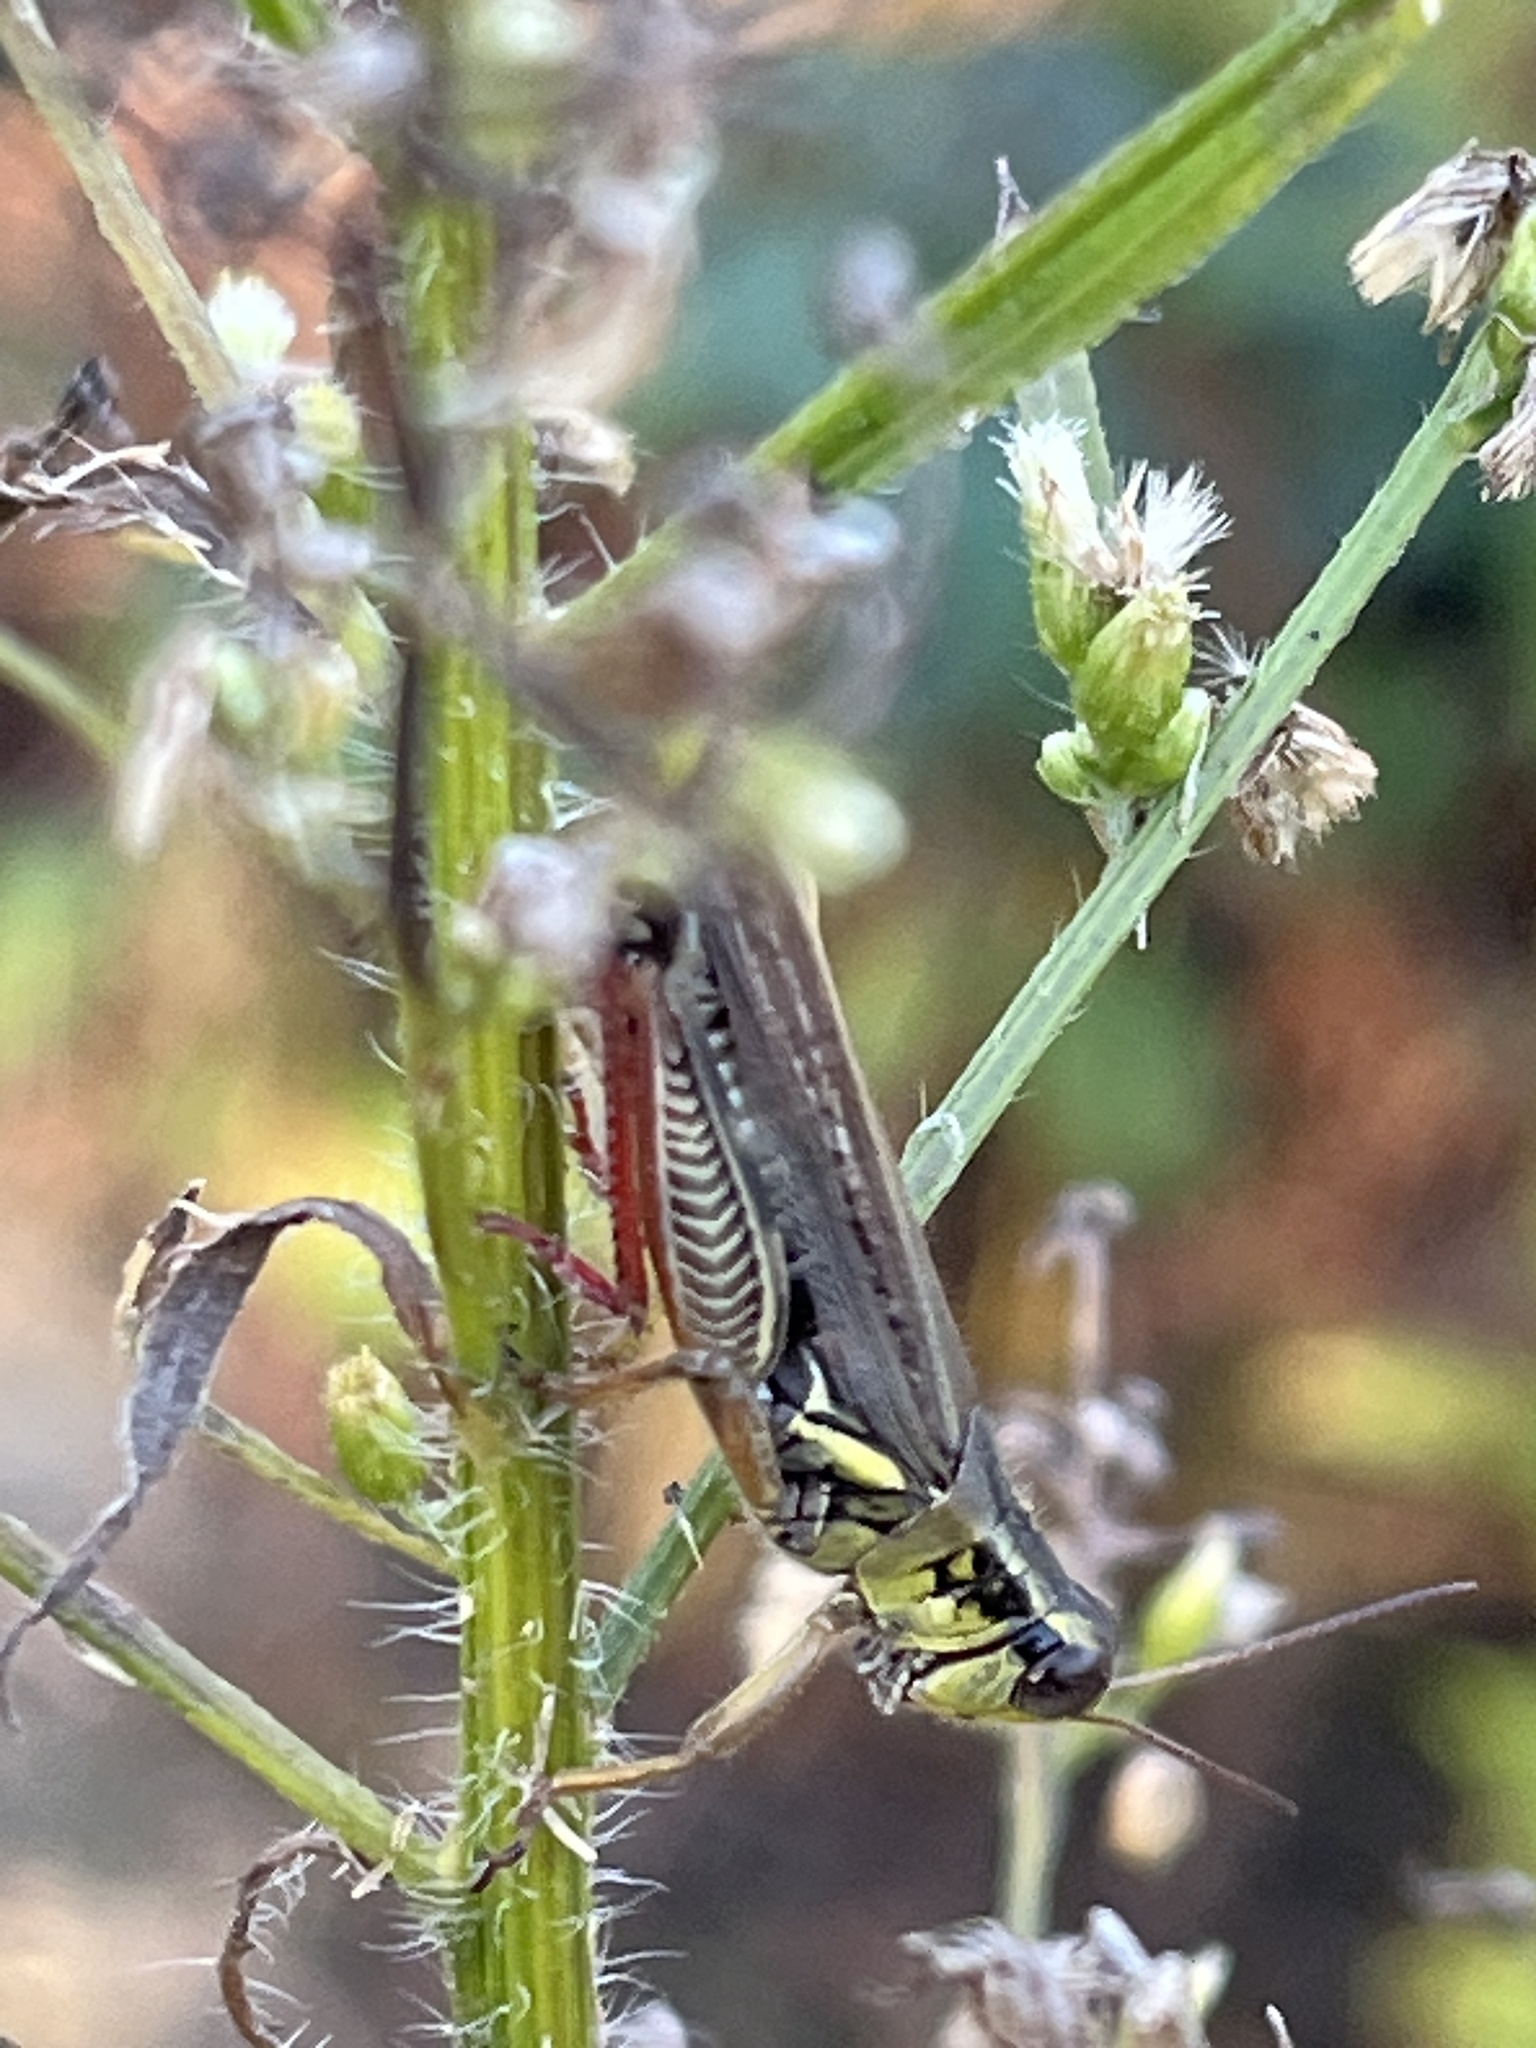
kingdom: Animalia
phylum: Arthropoda
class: Insecta
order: Orthoptera
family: Acrididae
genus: Melanoplus
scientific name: Melanoplus femurrubrum
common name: Red-legged grasshopper
